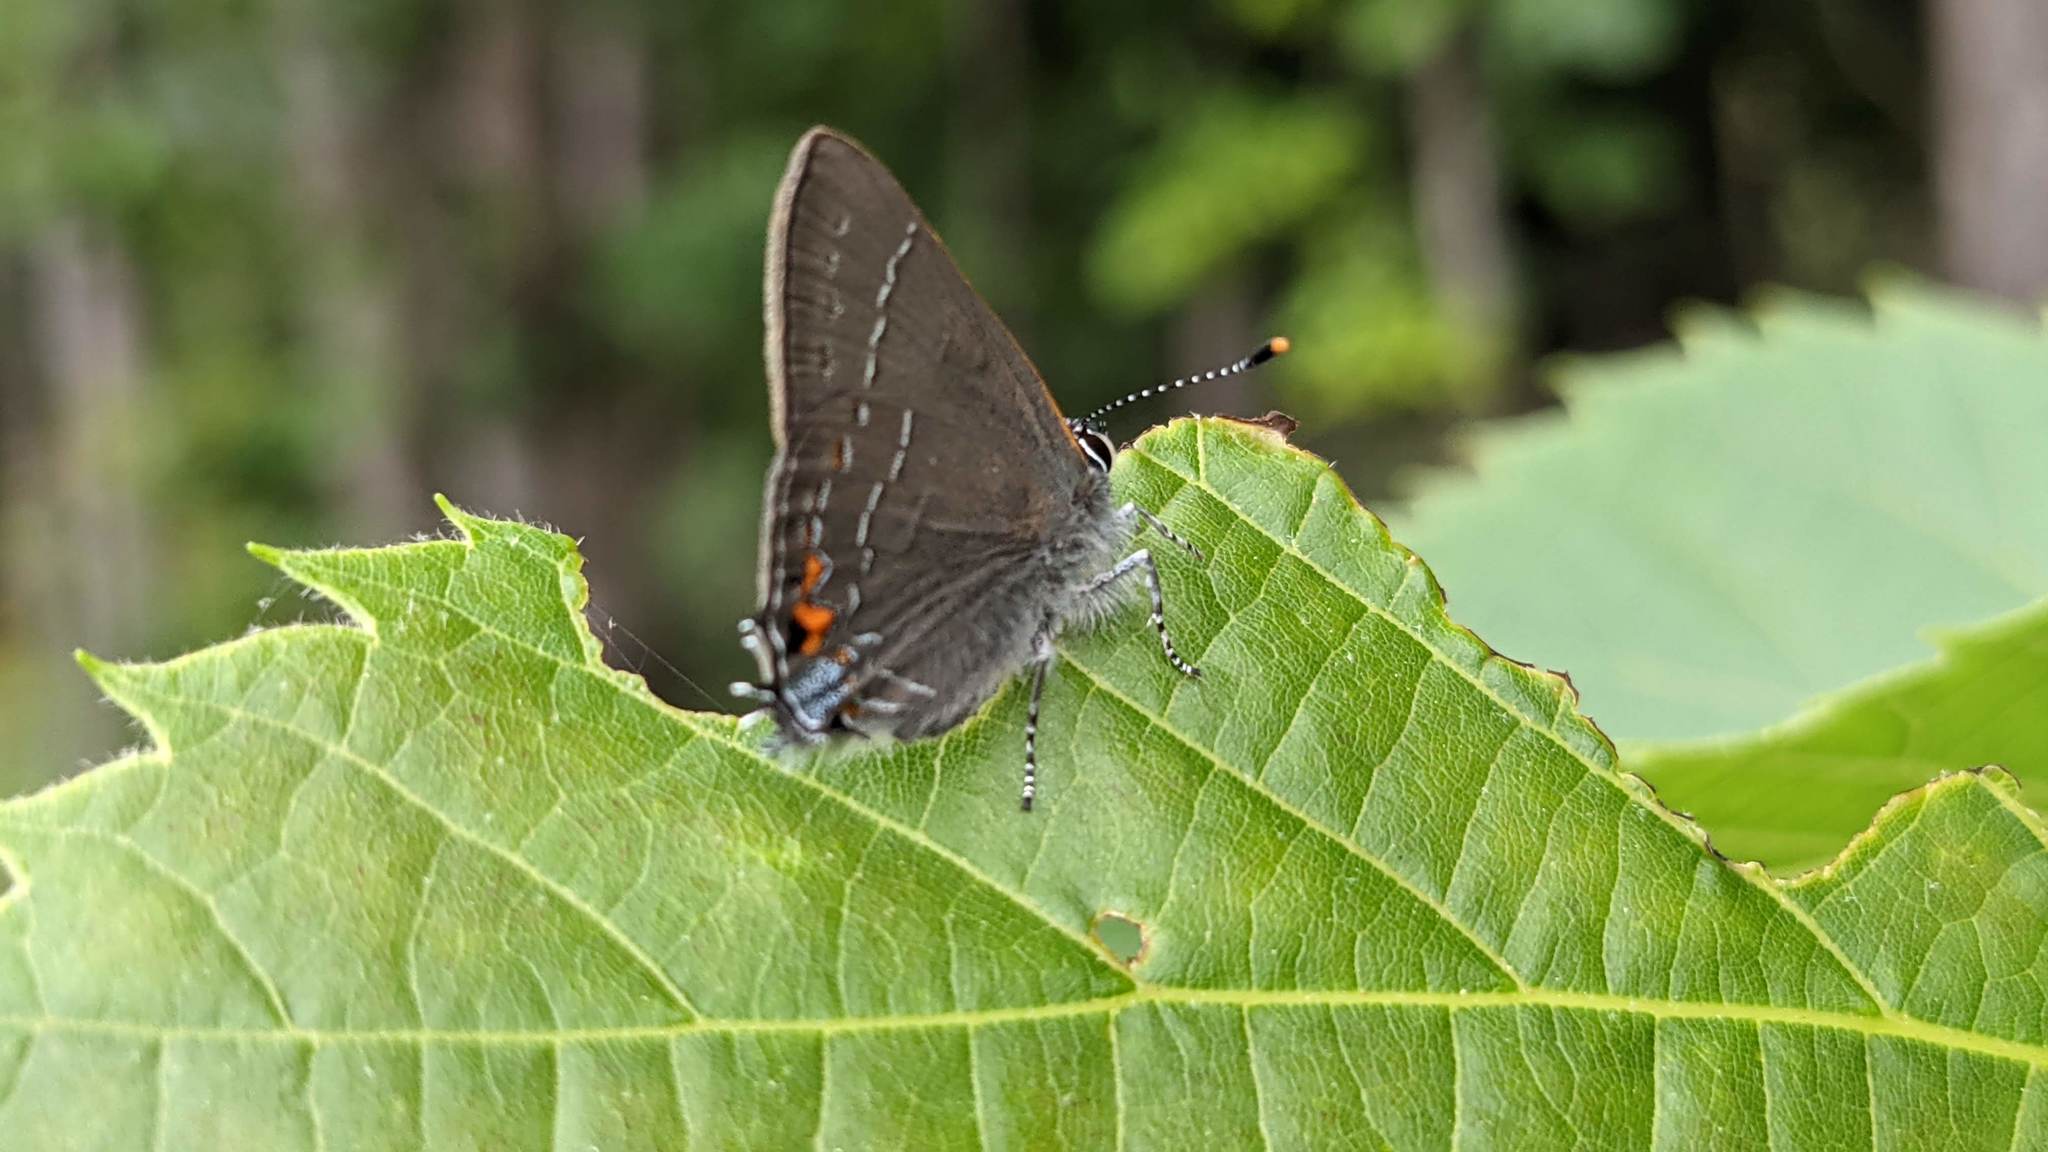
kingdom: Animalia
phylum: Arthropoda
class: Insecta
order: Lepidoptera
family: Lycaenidae
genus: Fixsenia
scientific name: Fixsenia favonius
